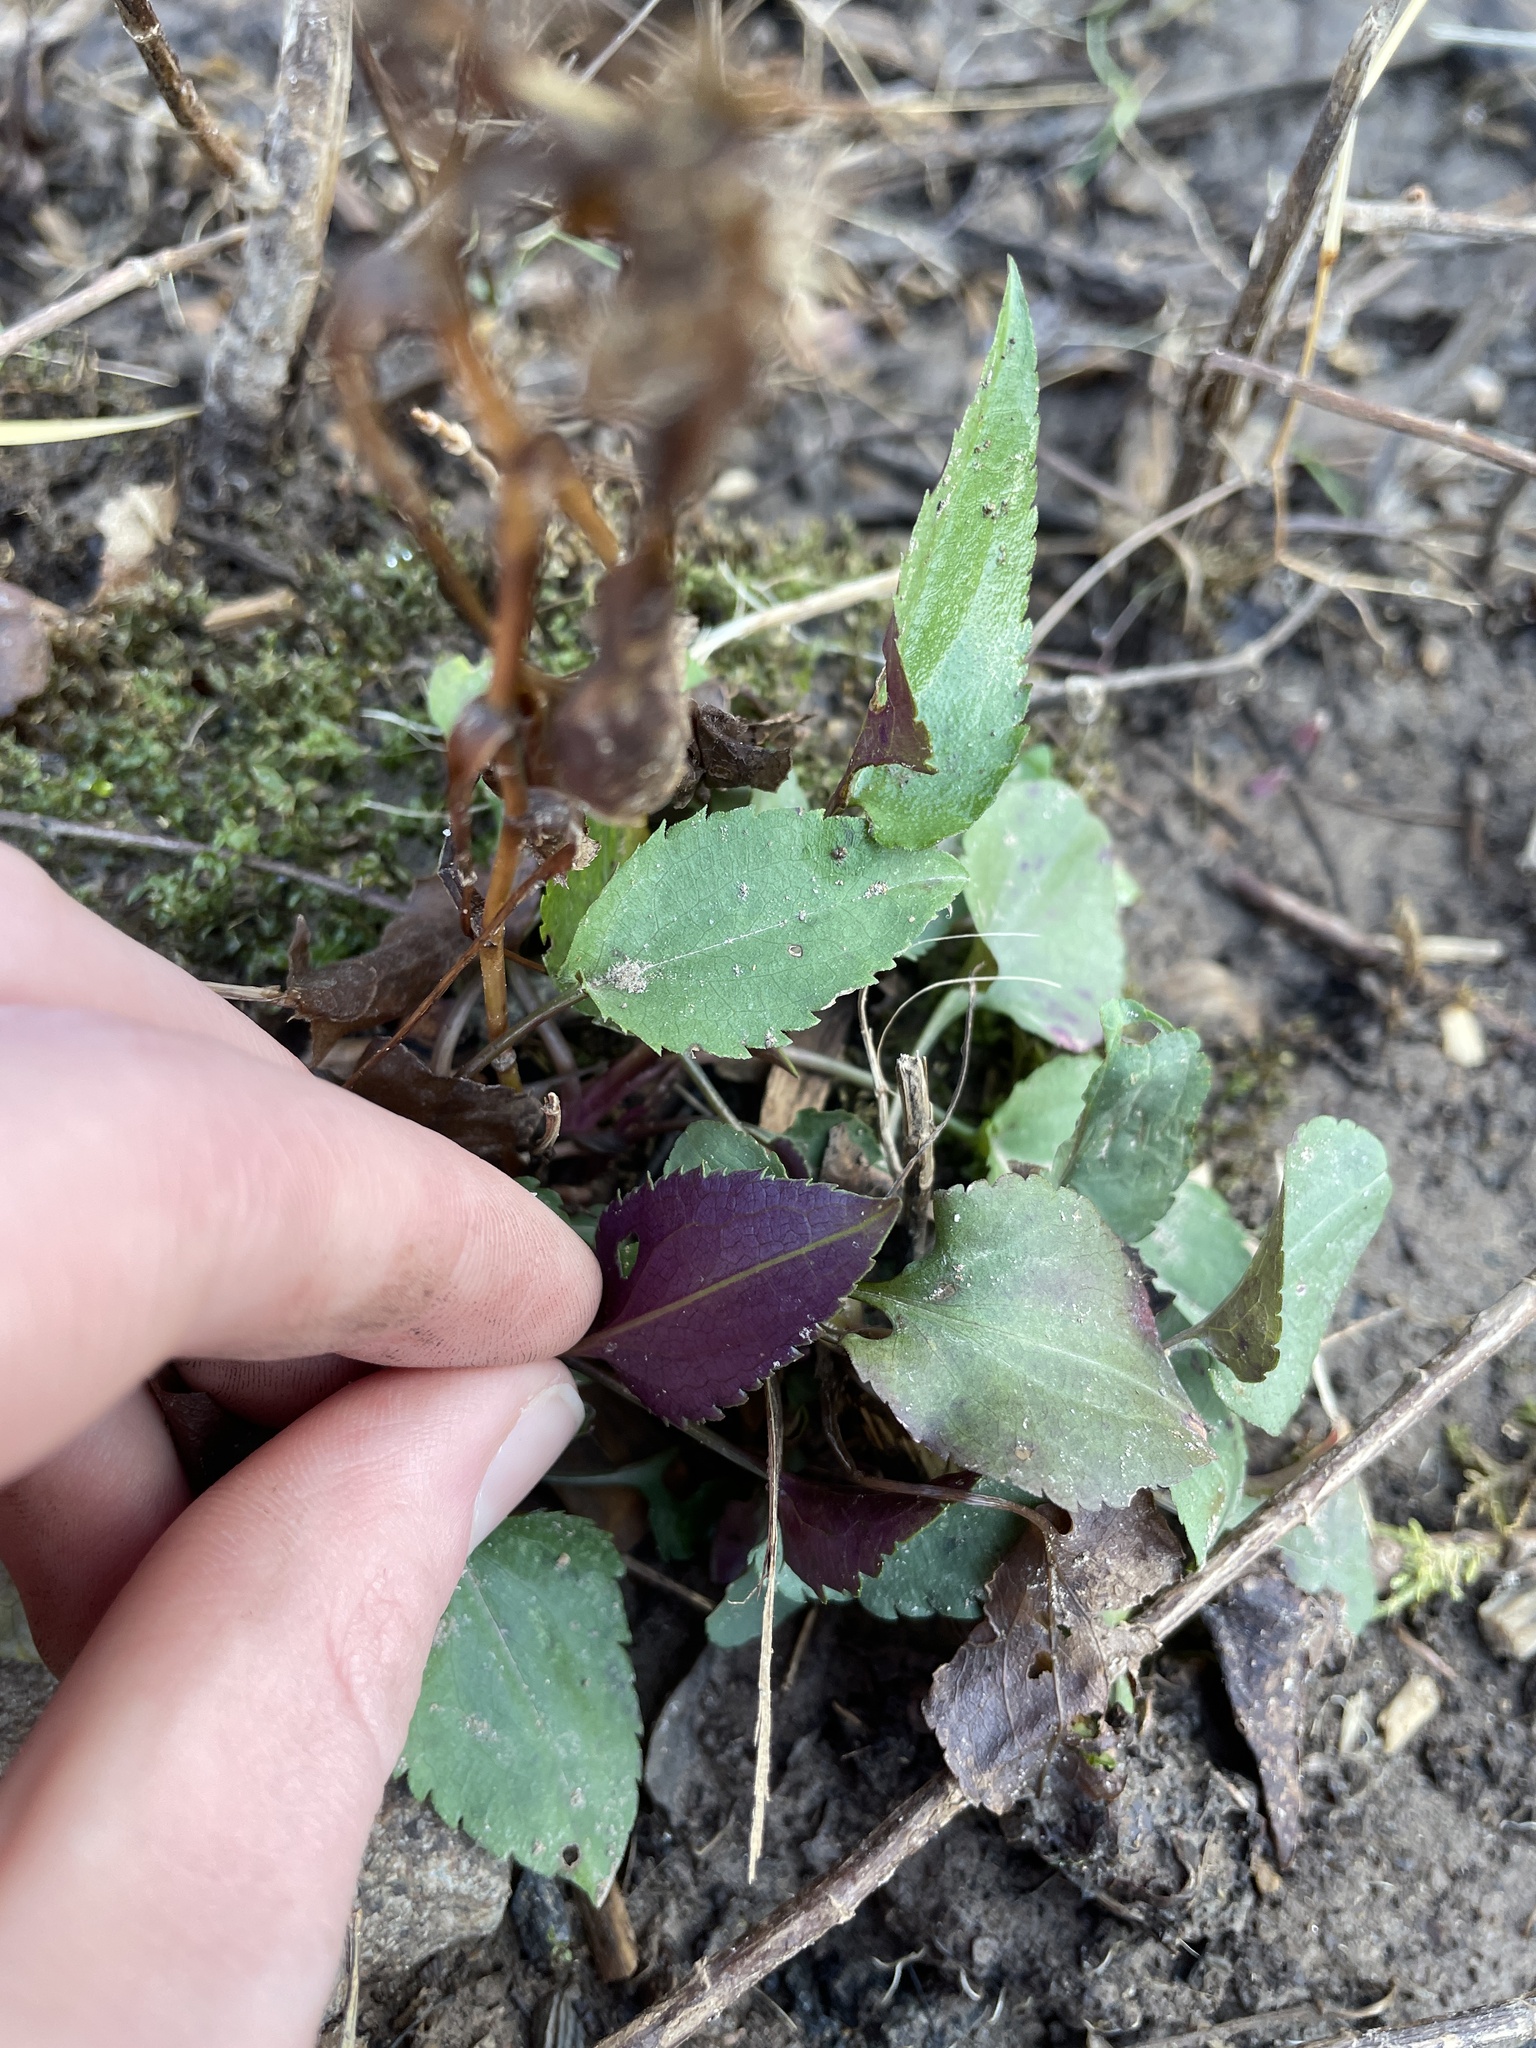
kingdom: Plantae
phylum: Tracheophyta
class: Magnoliopsida
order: Asterales
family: Asteraceae
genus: Symphyotrichum
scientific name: Symphyotrichum cordifolium
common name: Beeweed
